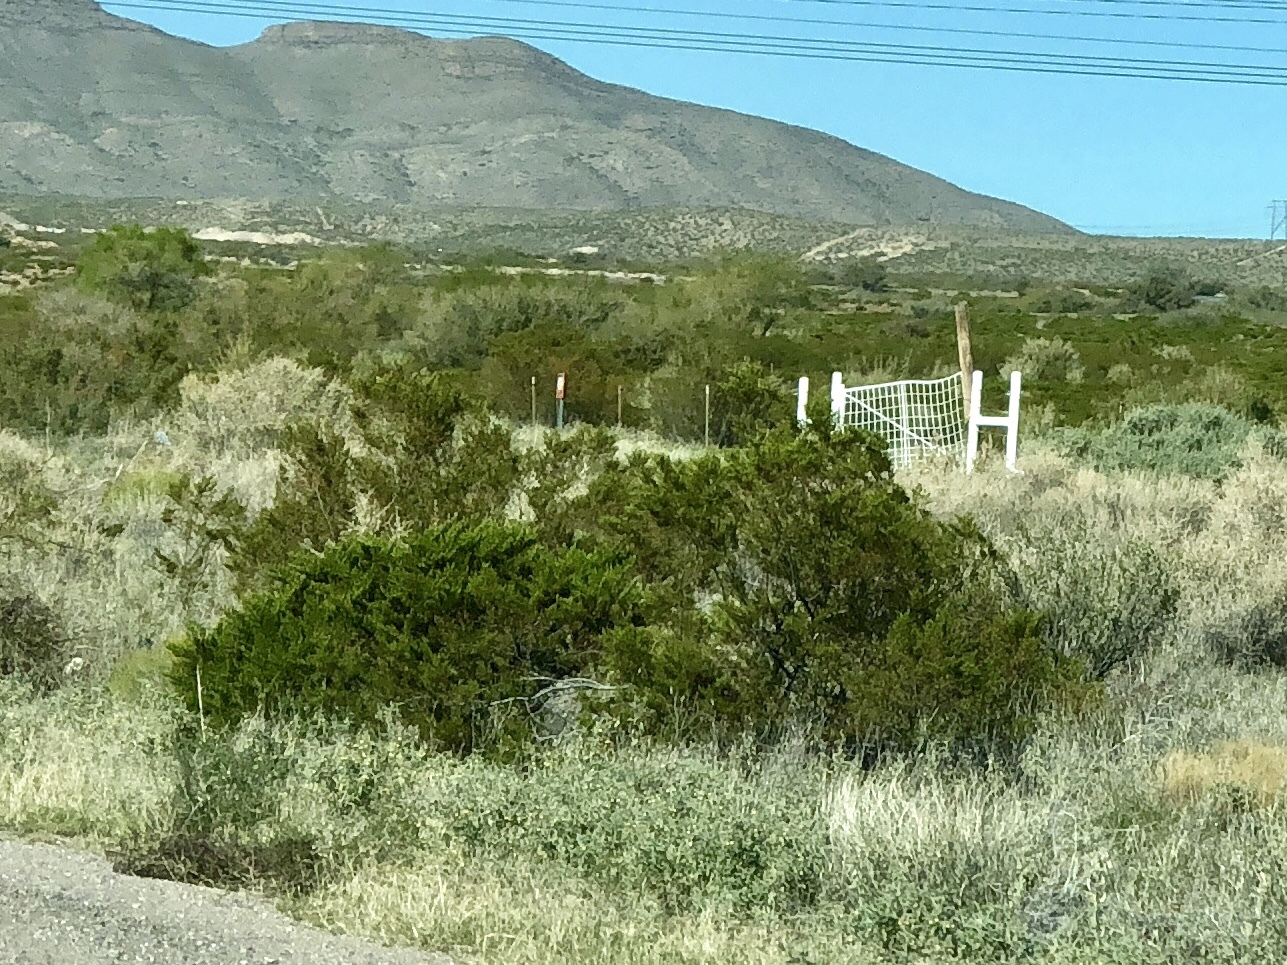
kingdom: Plantae
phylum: Tracheophyta
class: Magnoliopsida
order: Zygophyllales
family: Zygophyllaceae
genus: Larrea
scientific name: Larrea tridentata
